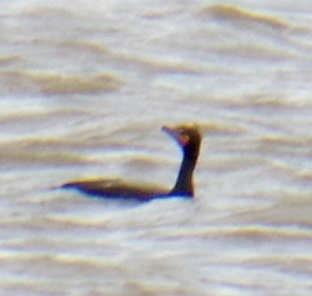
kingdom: Animalia
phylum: Chordata
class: Aves
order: Suliformes
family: Phalacrocoracidae
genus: Phalacrocorax
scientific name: Phalacrocorax auritus
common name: Double-crested cormorant
